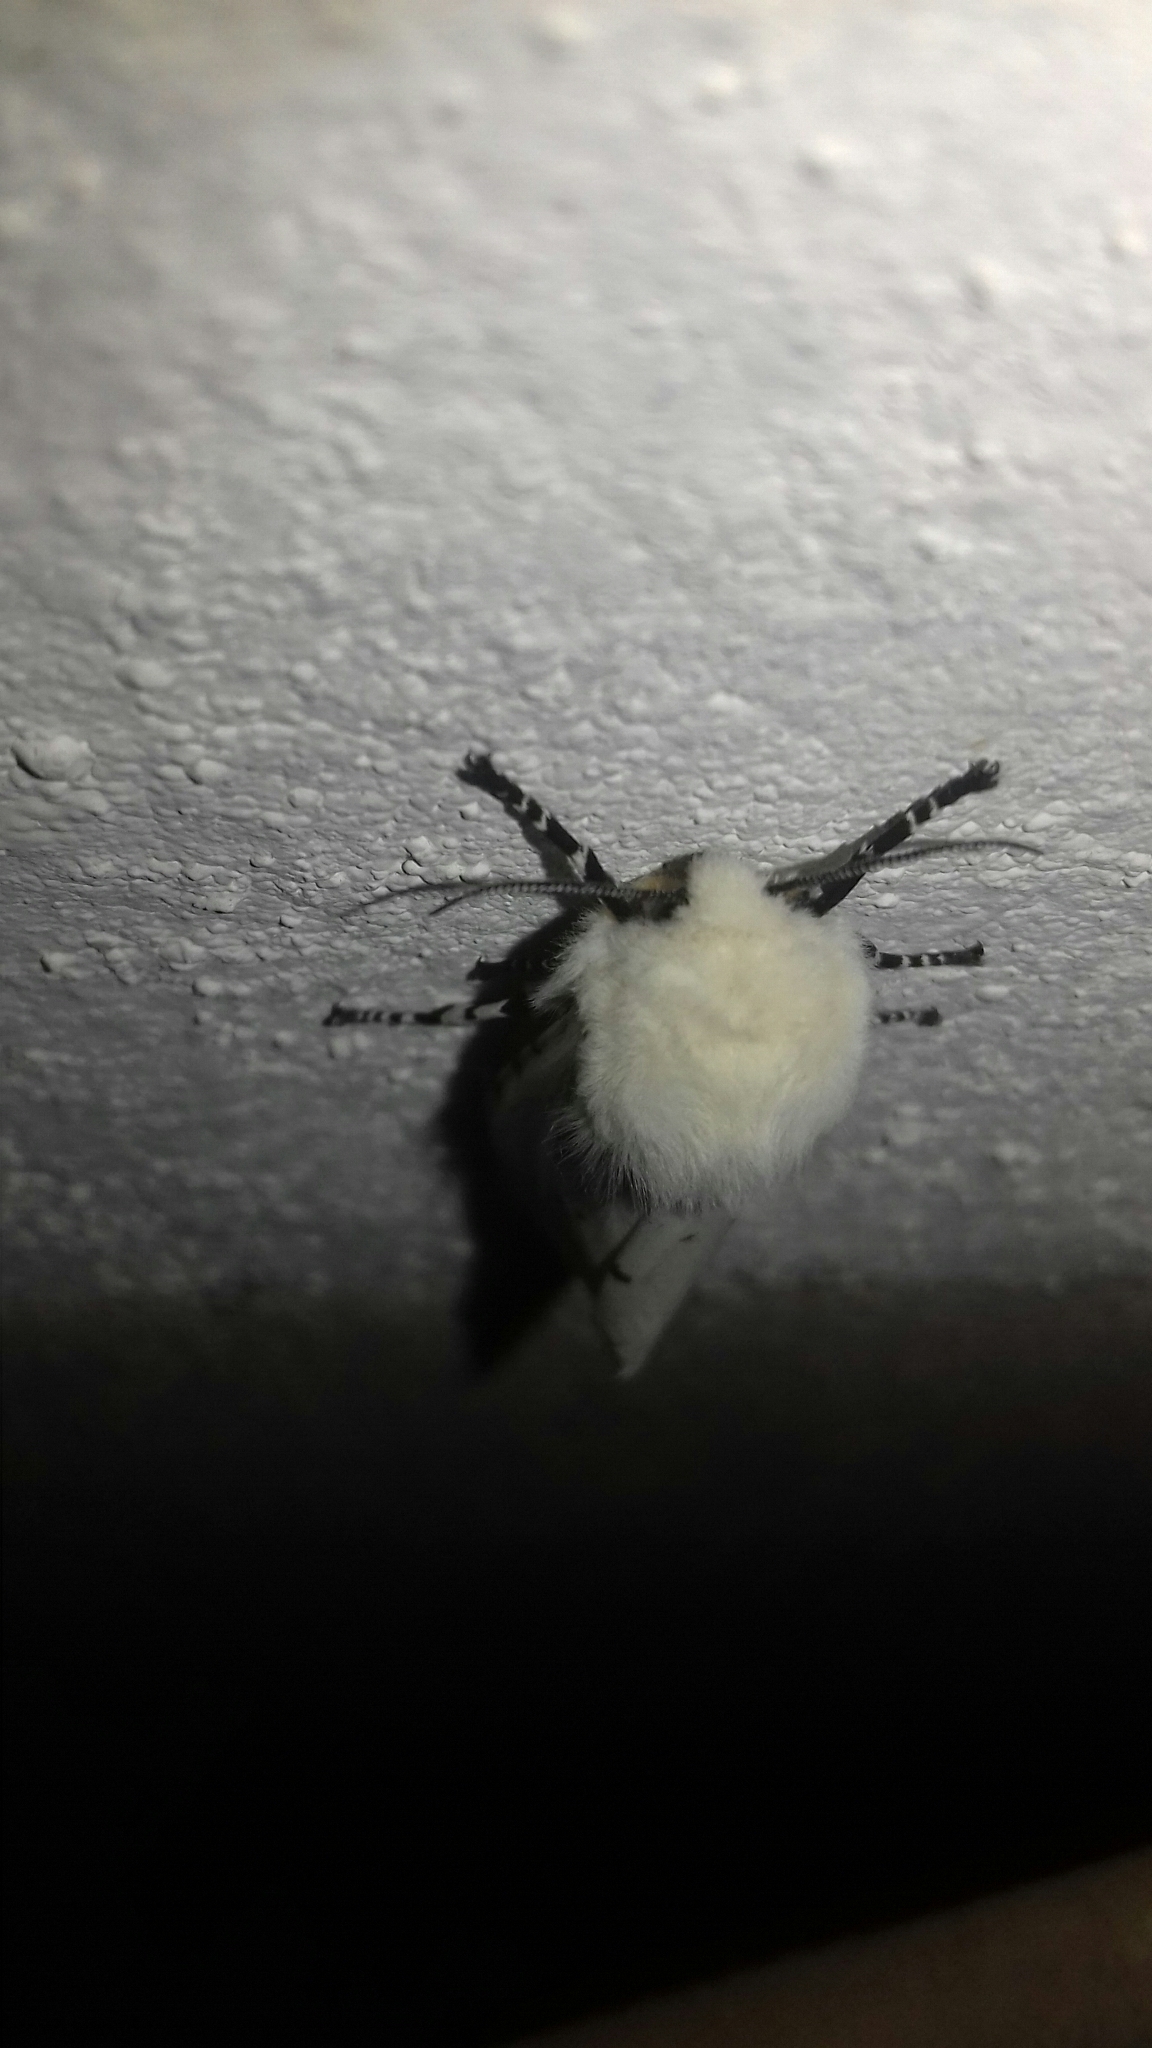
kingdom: Animalia
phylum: Arthropoda
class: Insecta
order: Lepidoptera
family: Erebidae
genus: Estigmene
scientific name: Estigmene acrea
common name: Salt marsh moth
